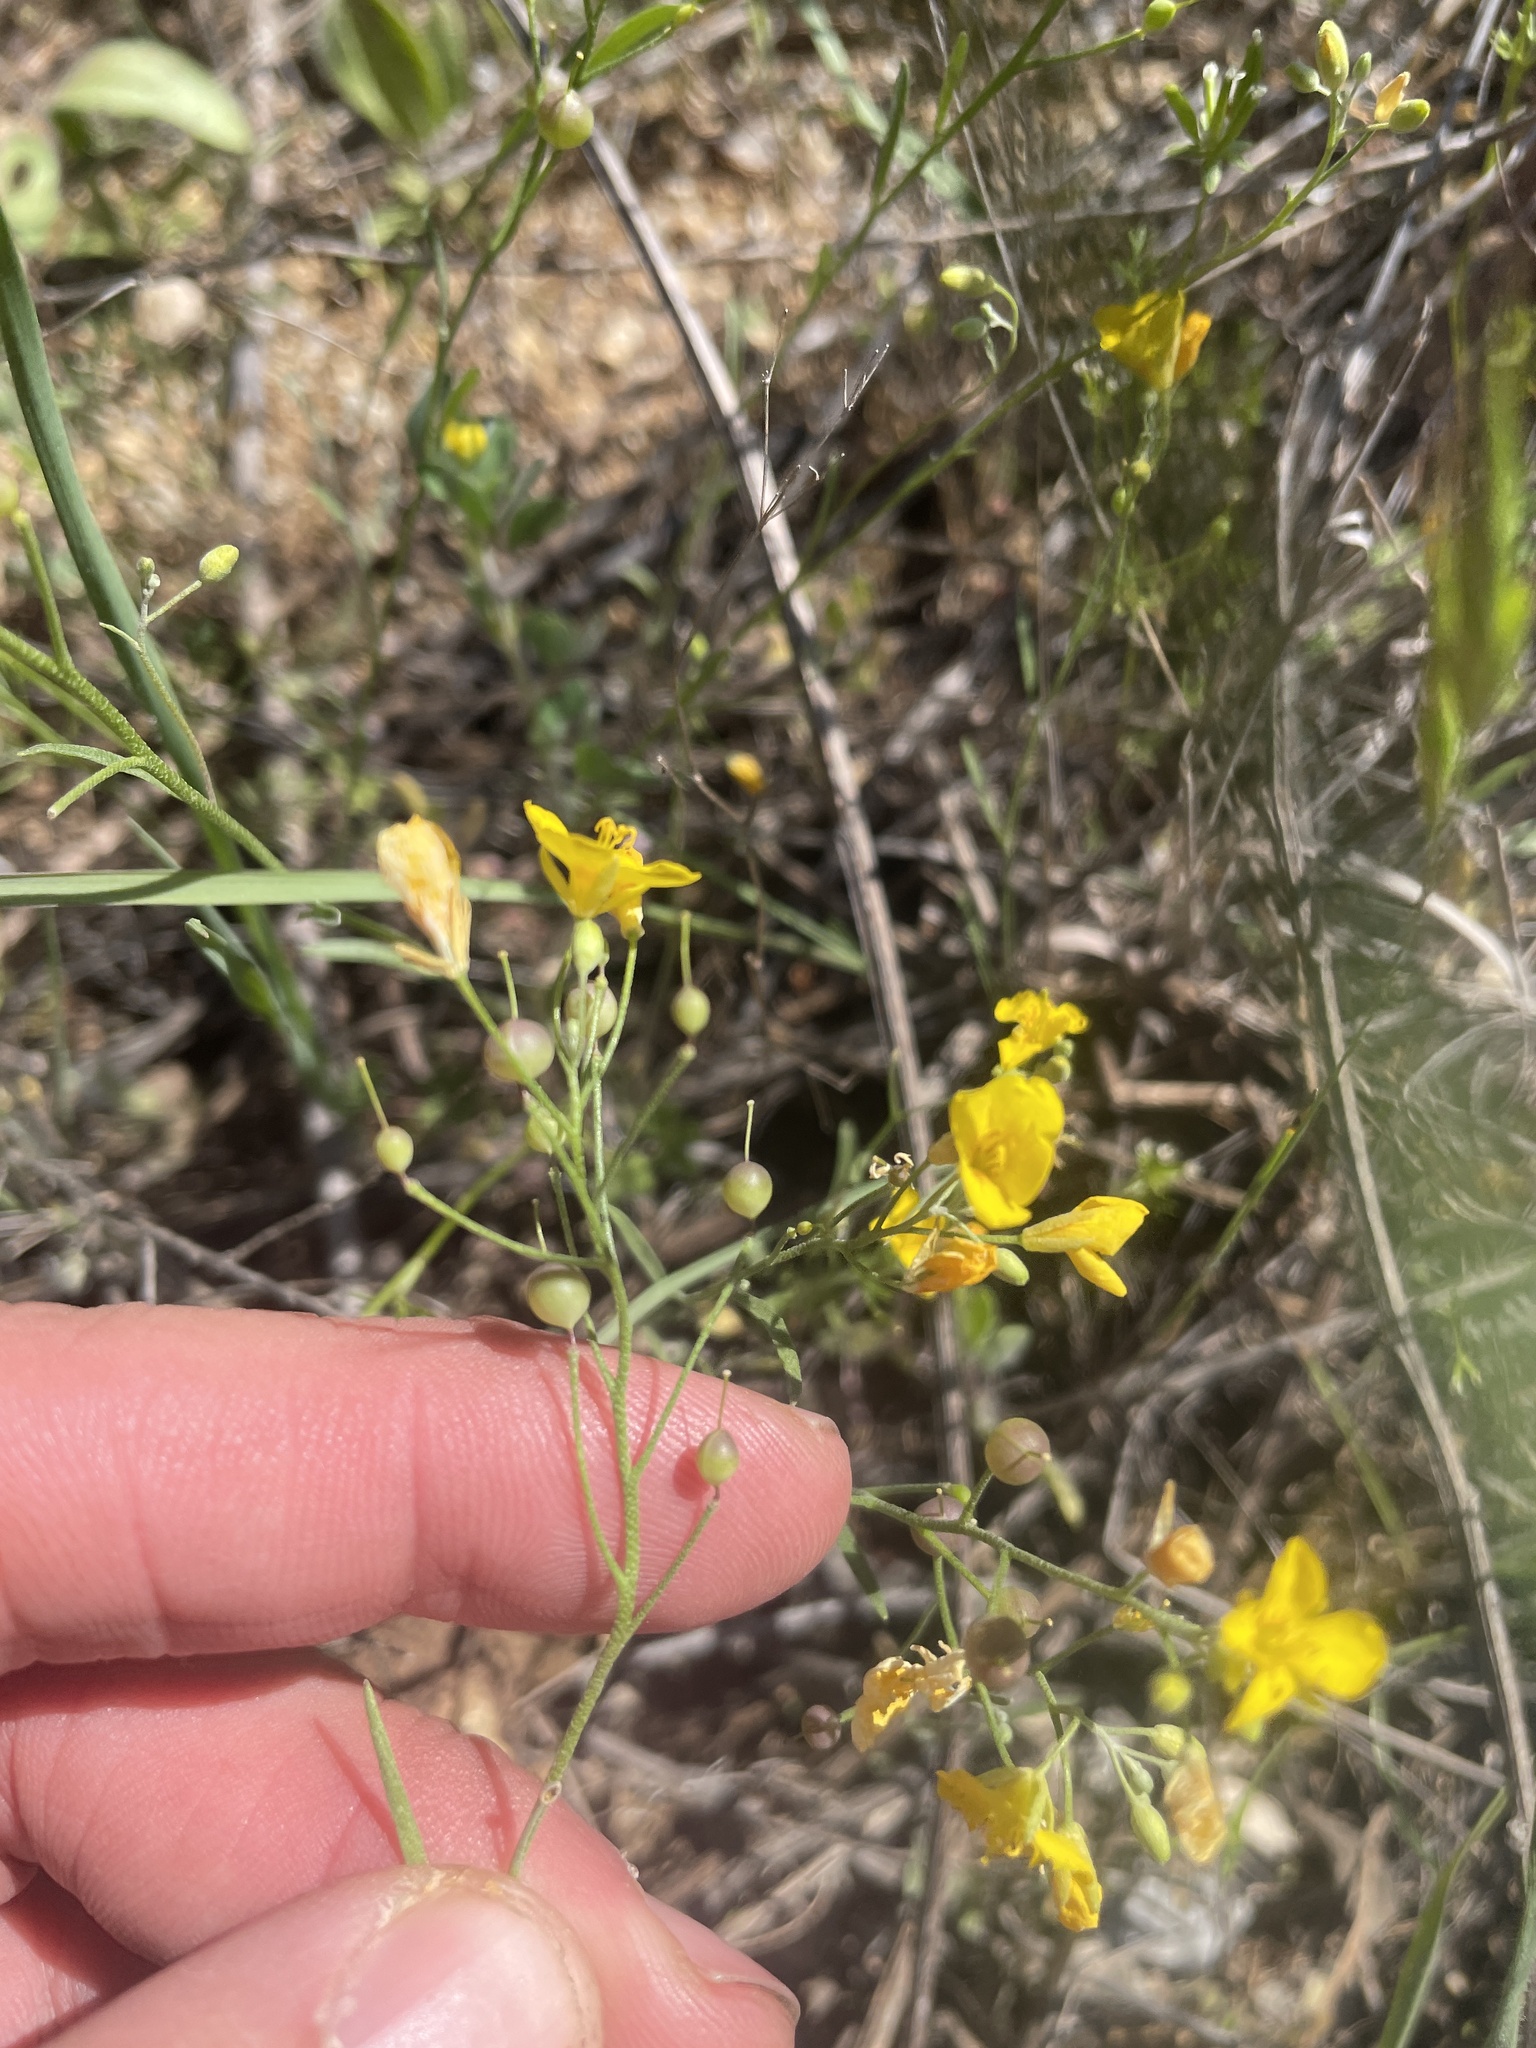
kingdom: Plantae
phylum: Tracheophyta
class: Magnoliopsida
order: Brassicales
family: Brassicaceae
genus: Physaria
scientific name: Physaria gracilis
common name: Spreading bladderpod
